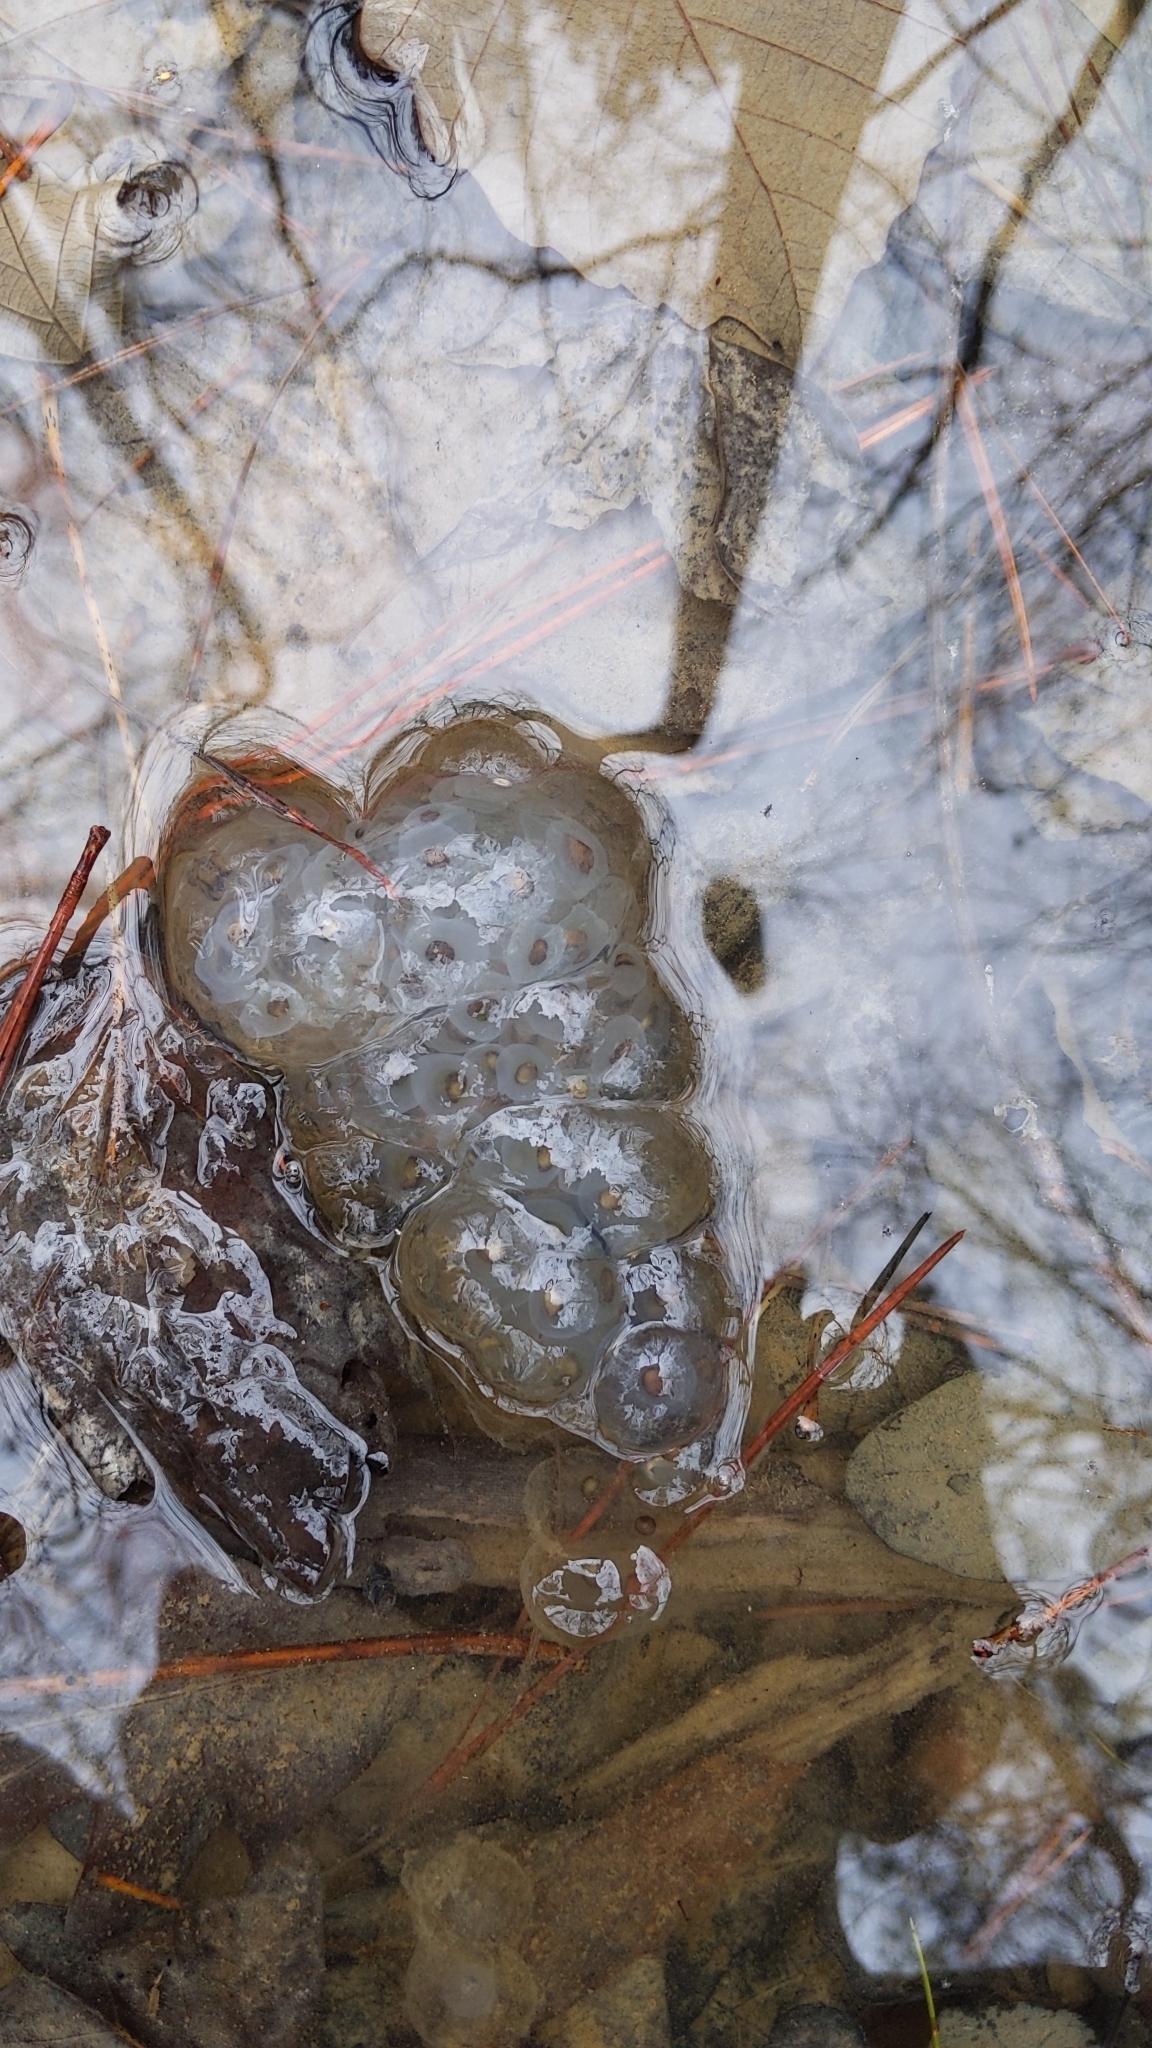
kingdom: Animalia
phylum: Chordata
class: Amphibia
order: Caudata
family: Ambystomatidae
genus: Ambystoma
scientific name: Ambystoma maculatum
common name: Spotted salamander
